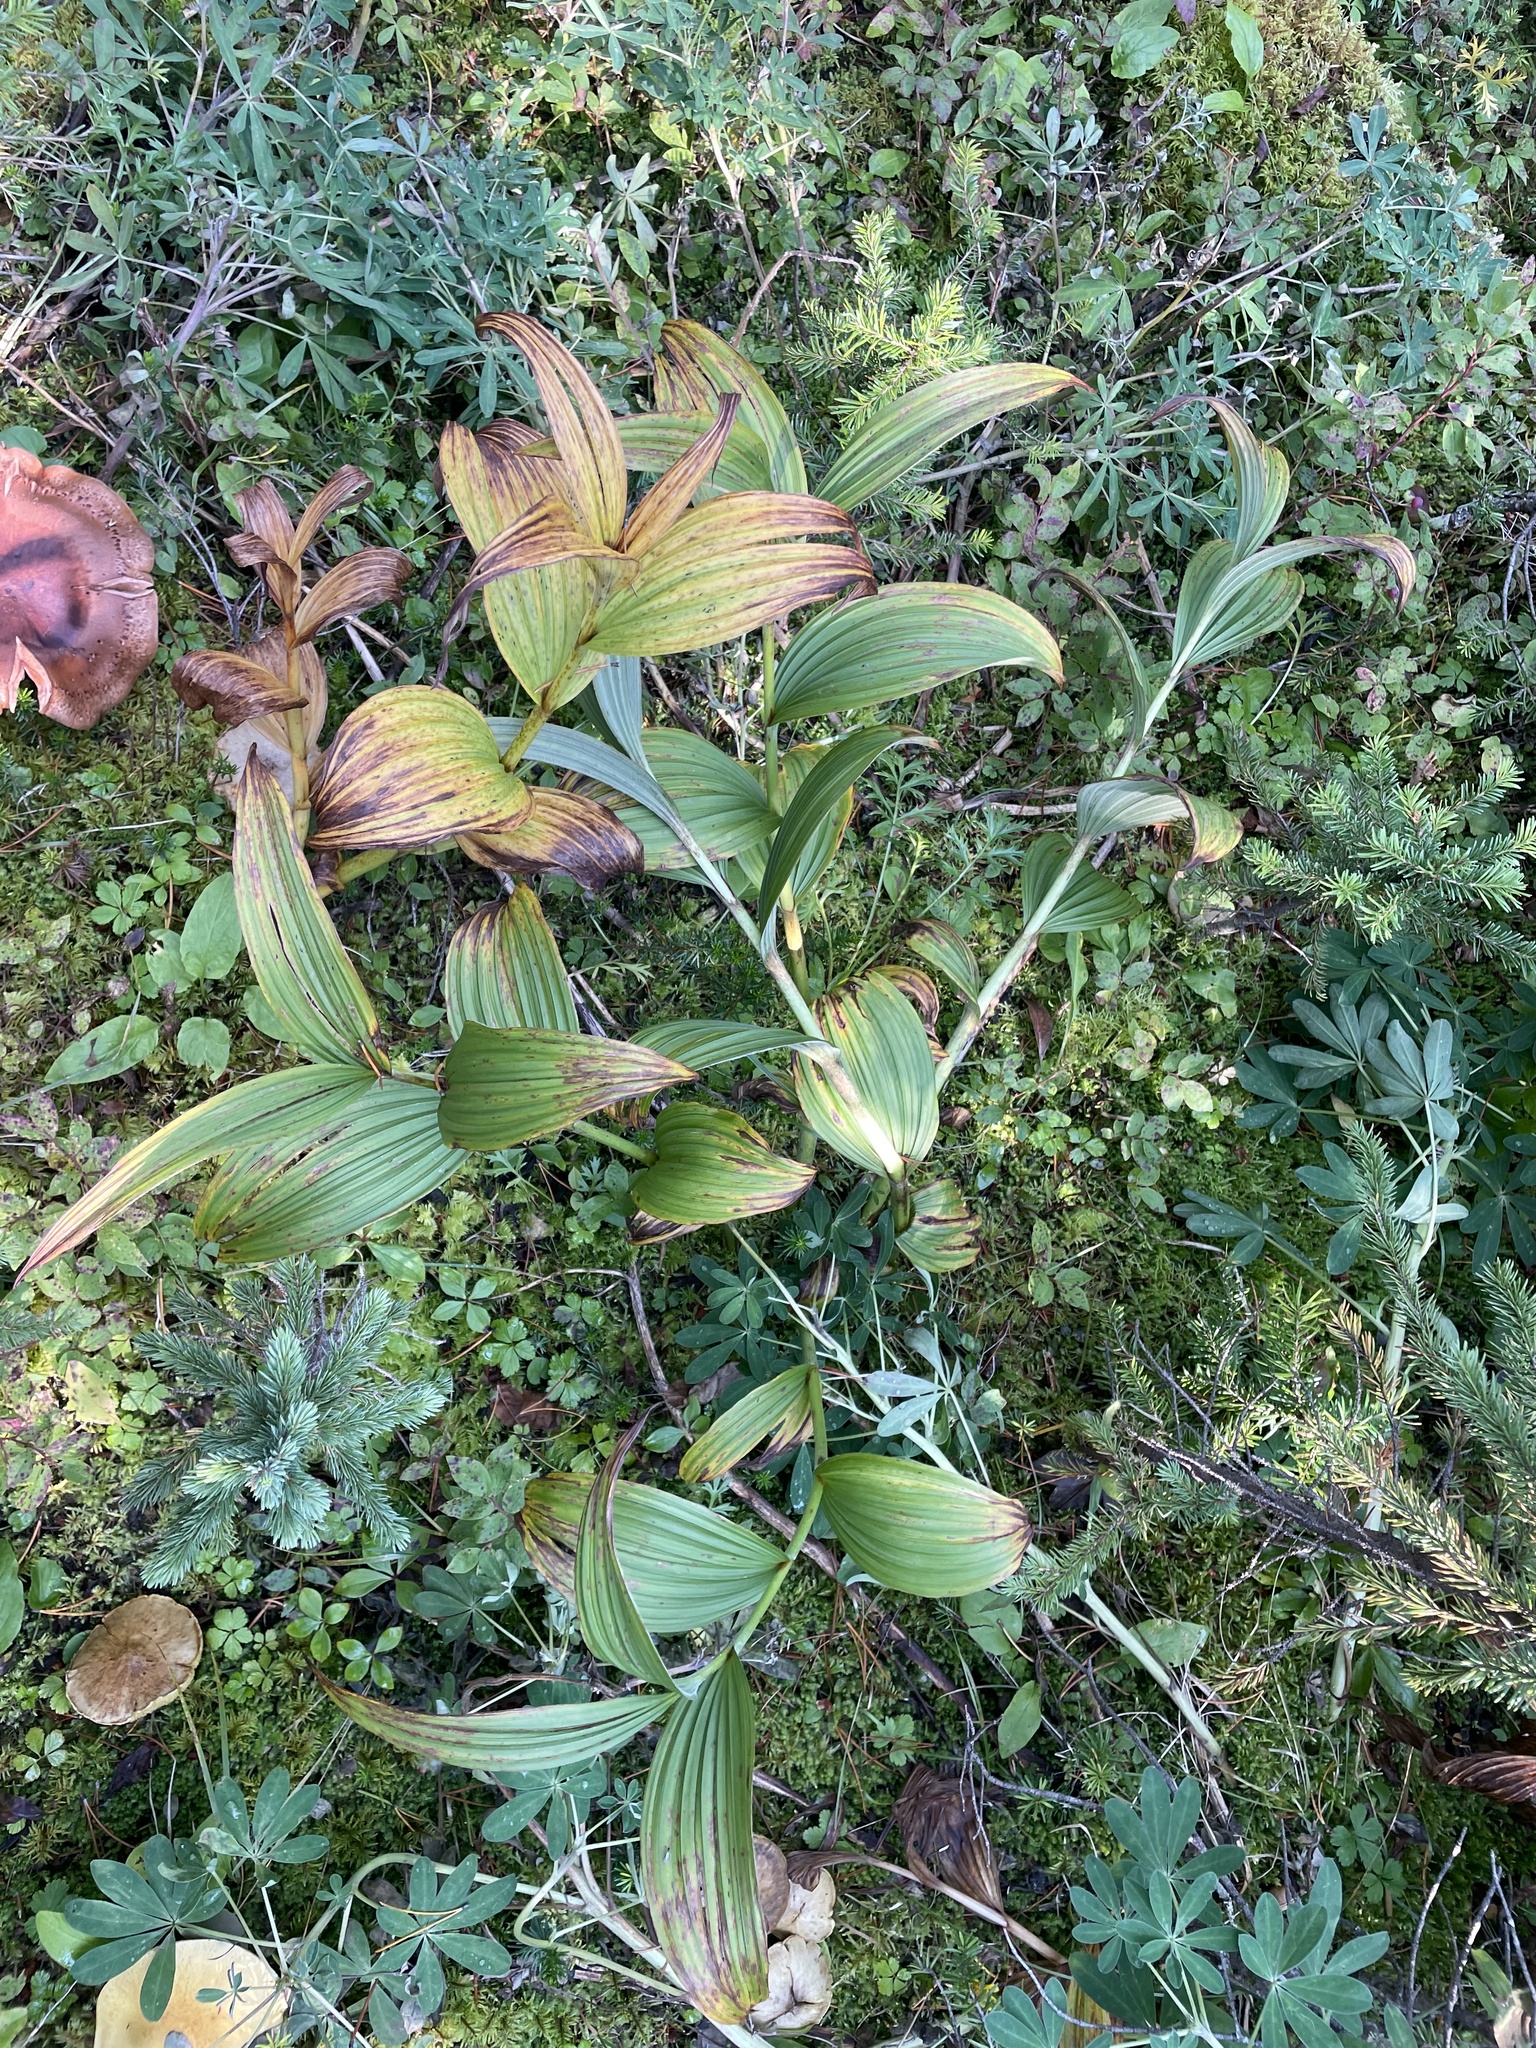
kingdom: Plantae
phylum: Tracheophyta
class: Liliopsida
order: Liliales
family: Melanthiaceae
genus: Veratrum
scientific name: Veratrum viride
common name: American false hellebore
